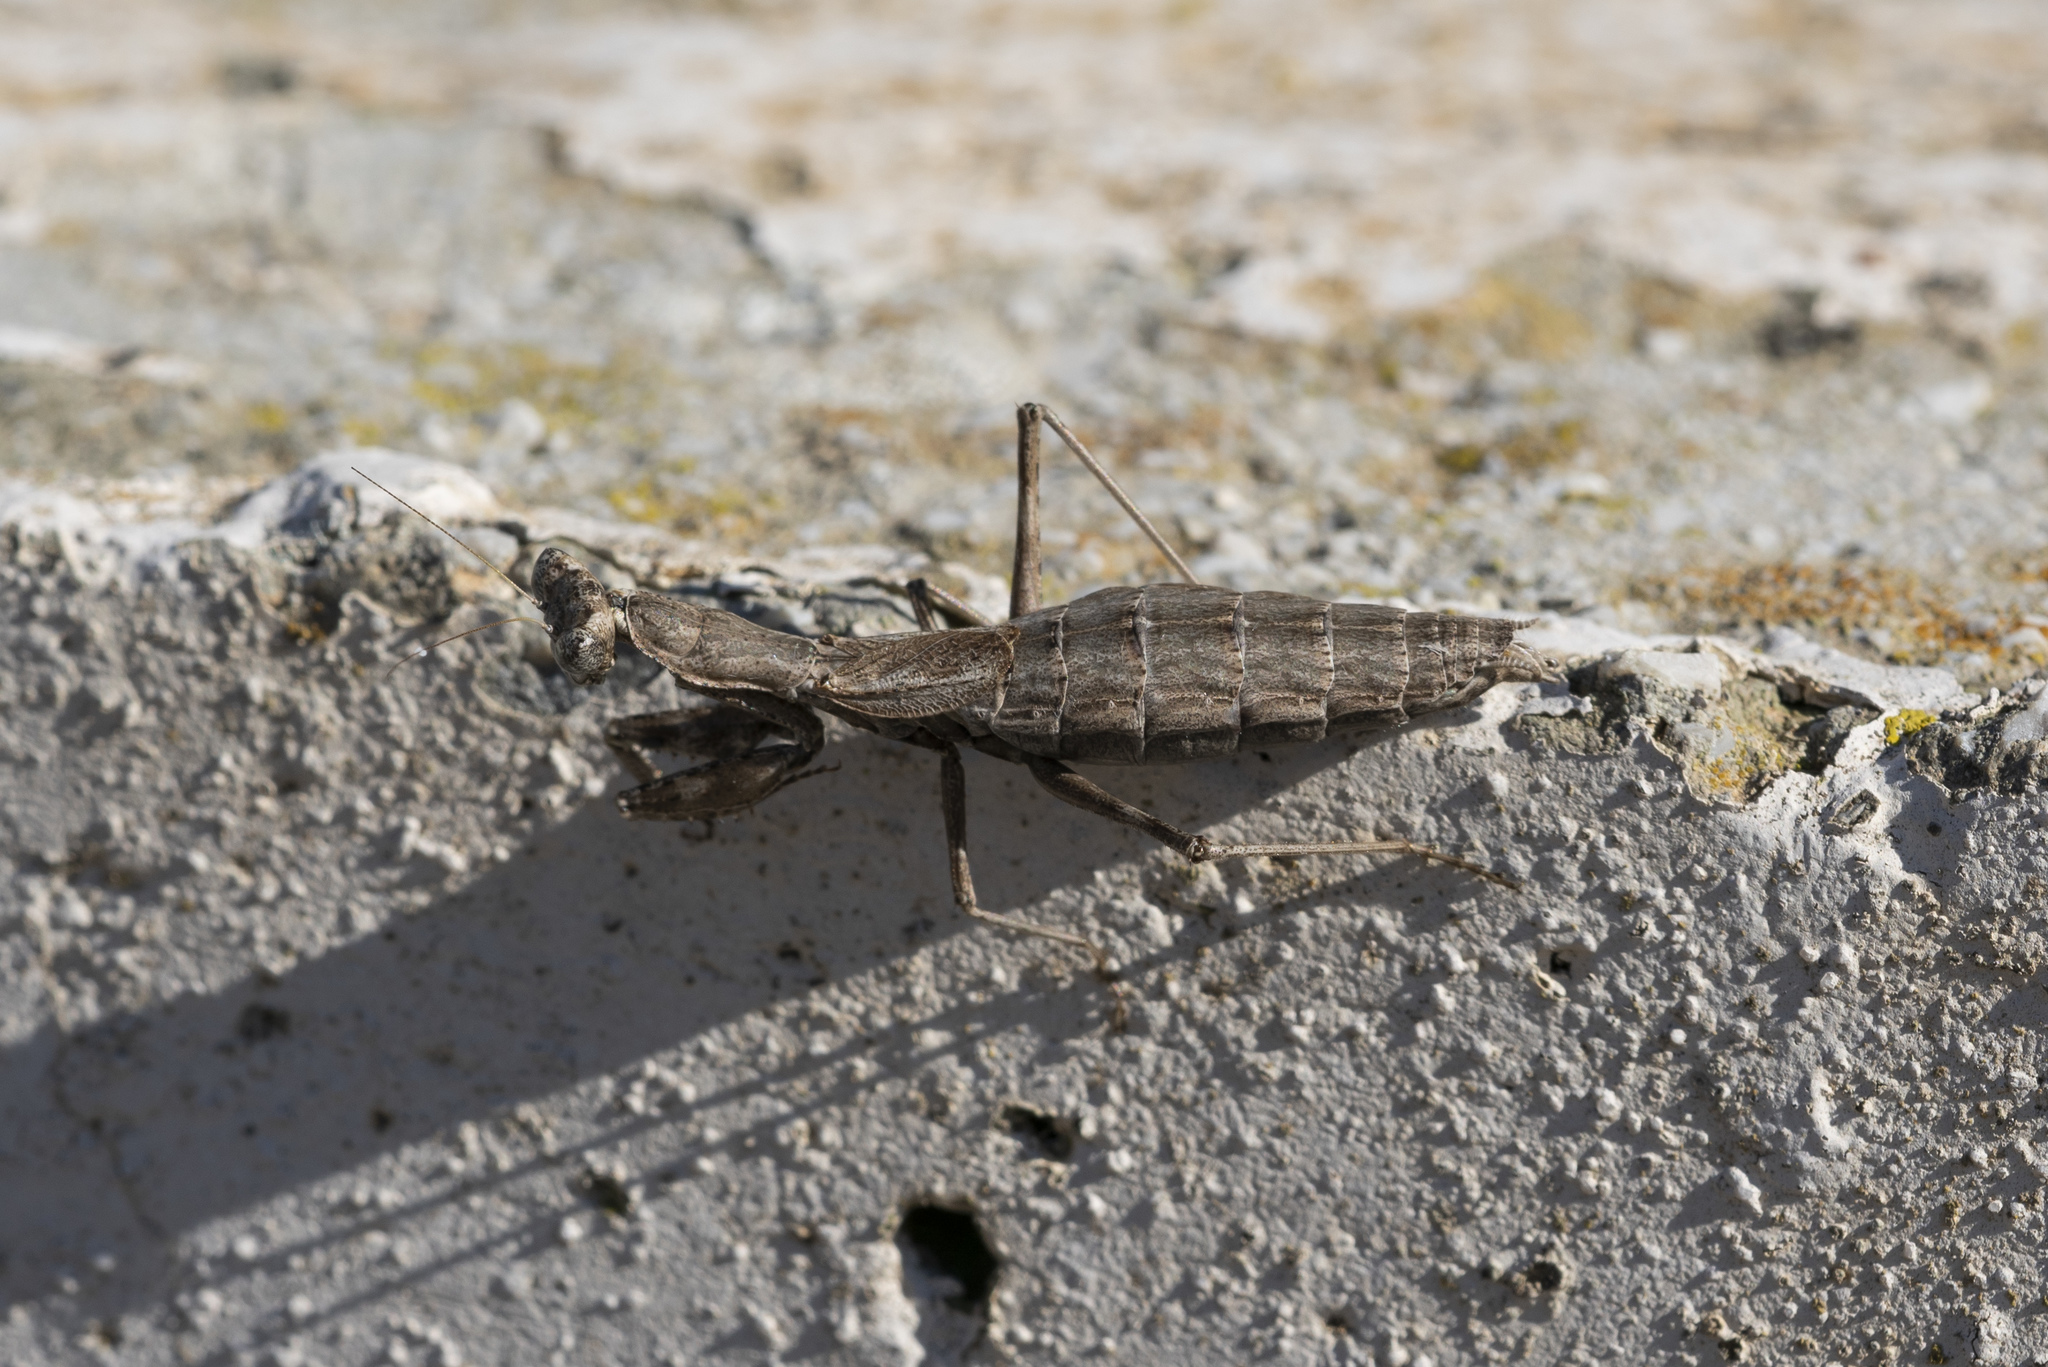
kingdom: Animalia
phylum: Arthropoda
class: Insecta
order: Mantodea
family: Amelidae
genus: Ameles
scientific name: Ameles heldreichi
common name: Heldreich's dwarf mantis
